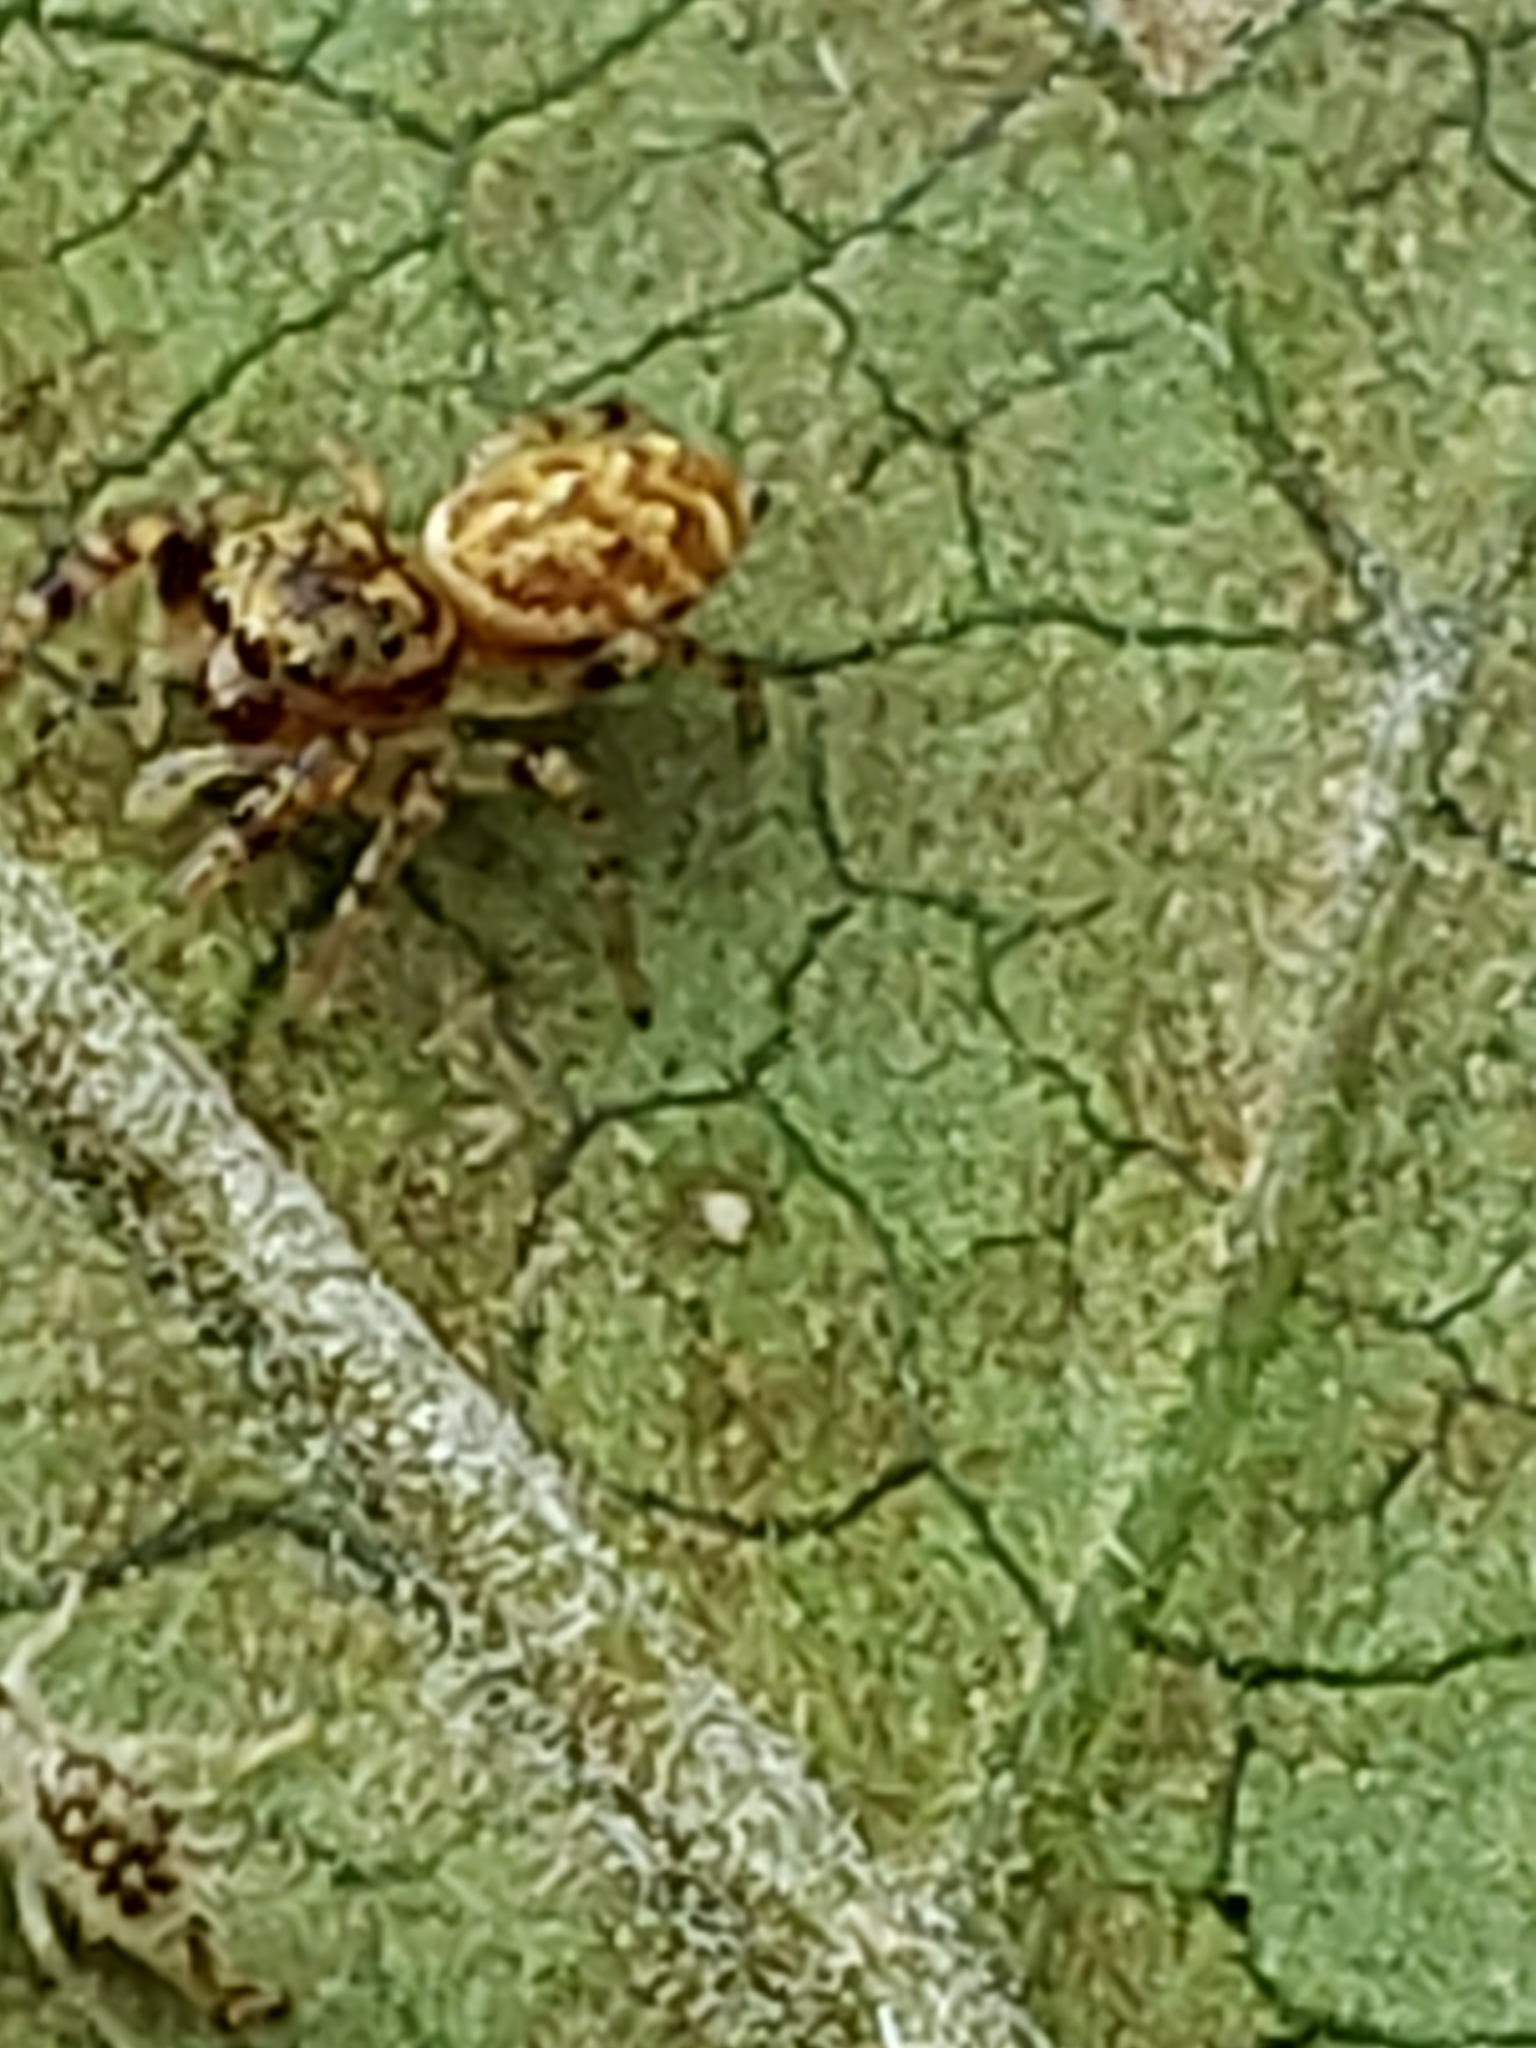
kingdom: Animalia
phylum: Arthropoda
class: Arachnida
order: Araneae
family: Salticidae
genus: Pelegrina
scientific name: Pelegrina galathea
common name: Jumping spiders
